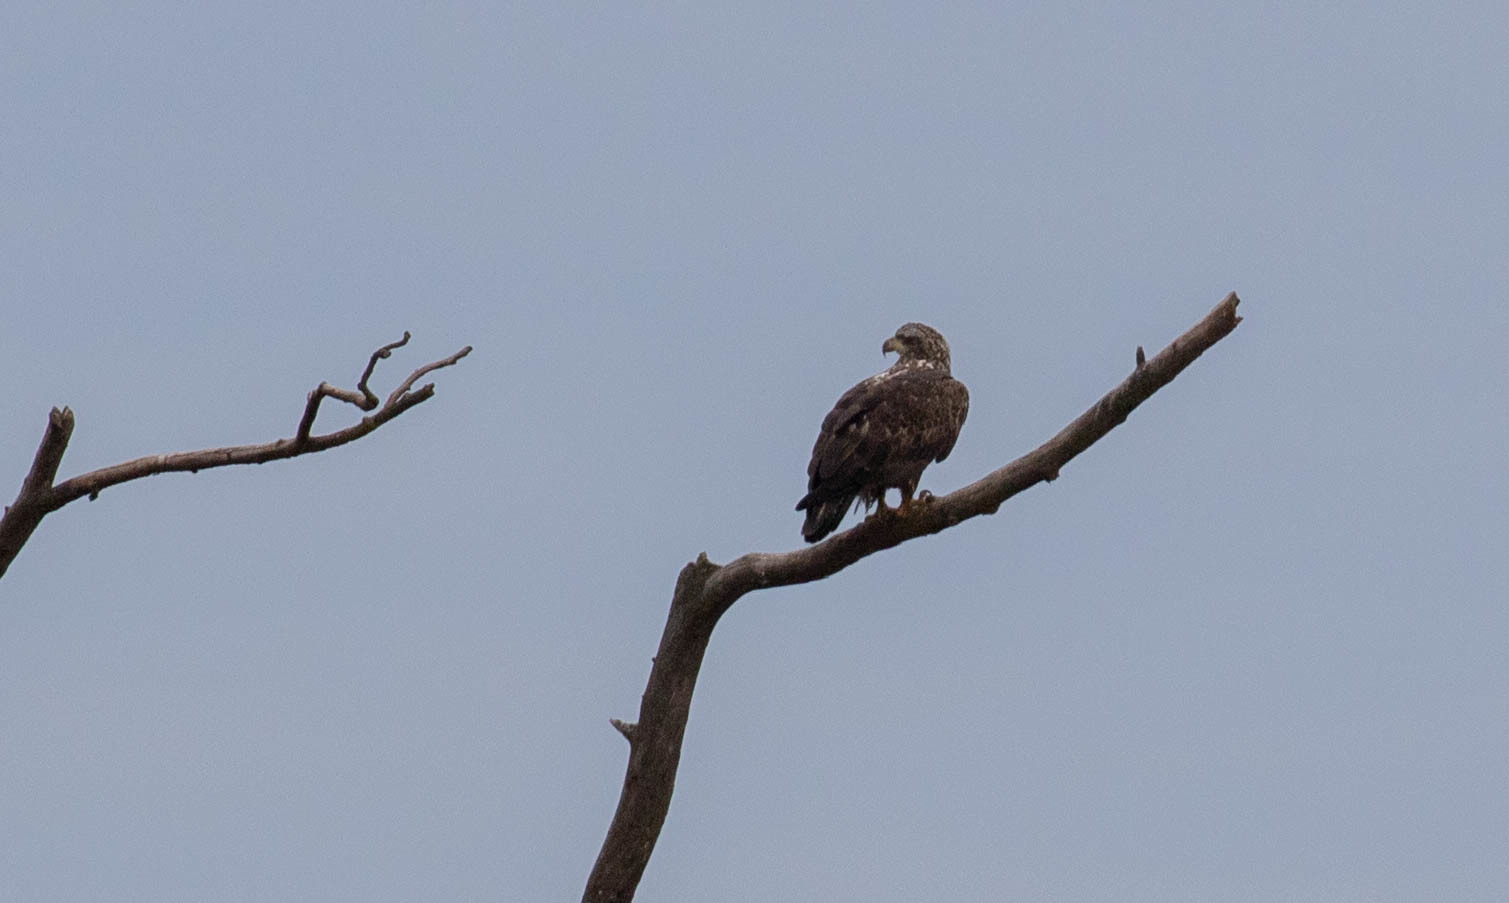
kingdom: Animalia
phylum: Chordata
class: Aves
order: Accipitriformes
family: Accipitridae
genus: Haliaeetus
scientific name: Haliaeetus leucocephalus
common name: Bald eagle
